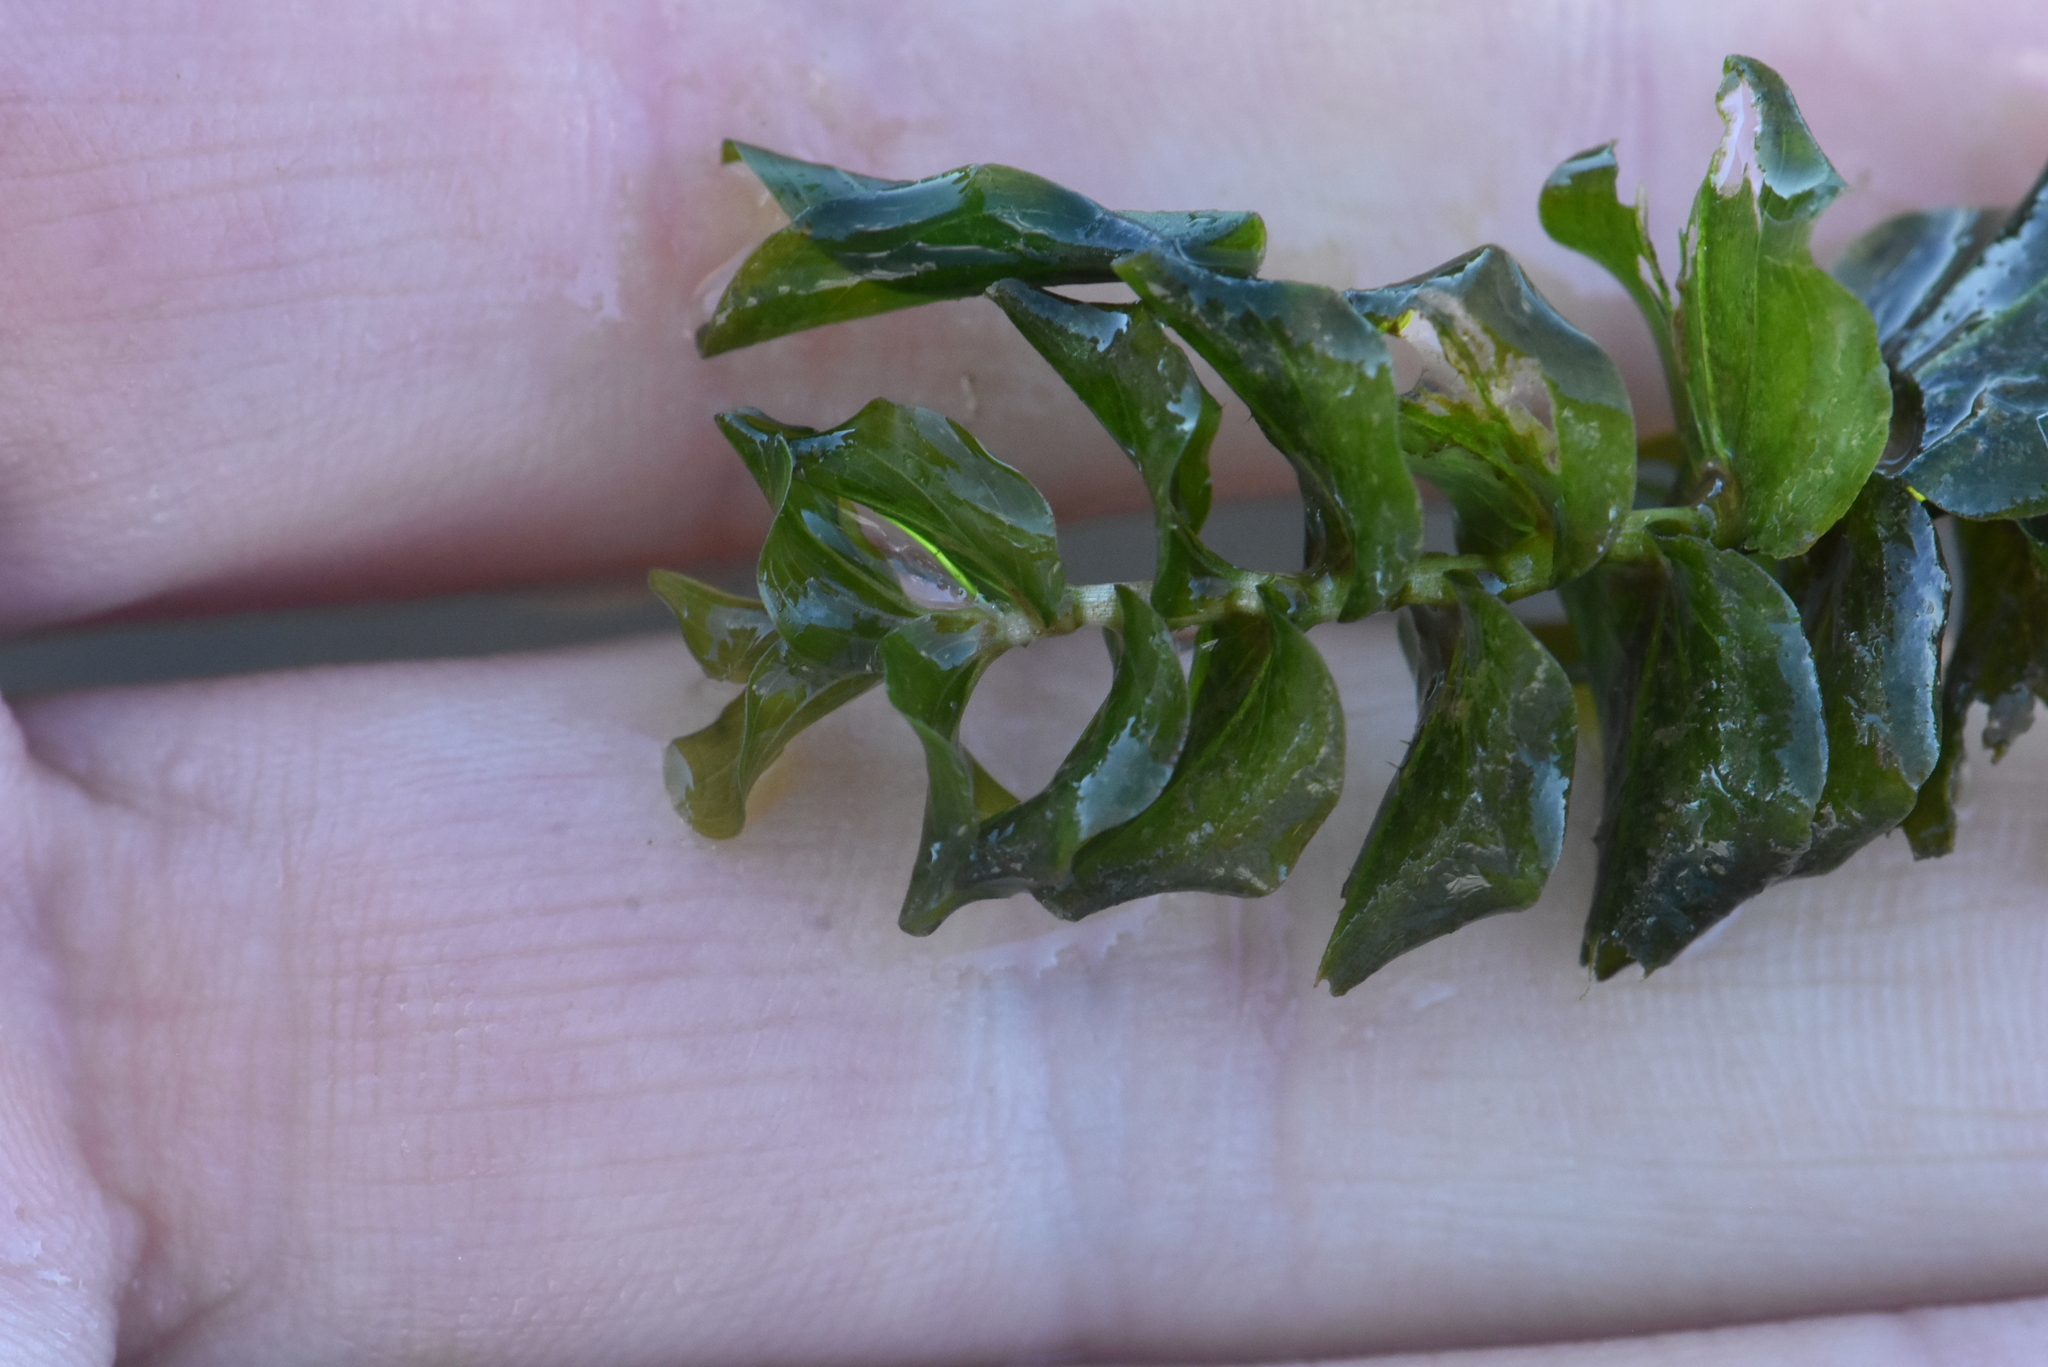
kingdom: Plantae
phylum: Tracheophyta
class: Liliopsida
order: Alismatales
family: Potamogetonaceae
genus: Potamogeton
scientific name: Potamogeton perfoliatus
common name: Perfoliate pondweed
